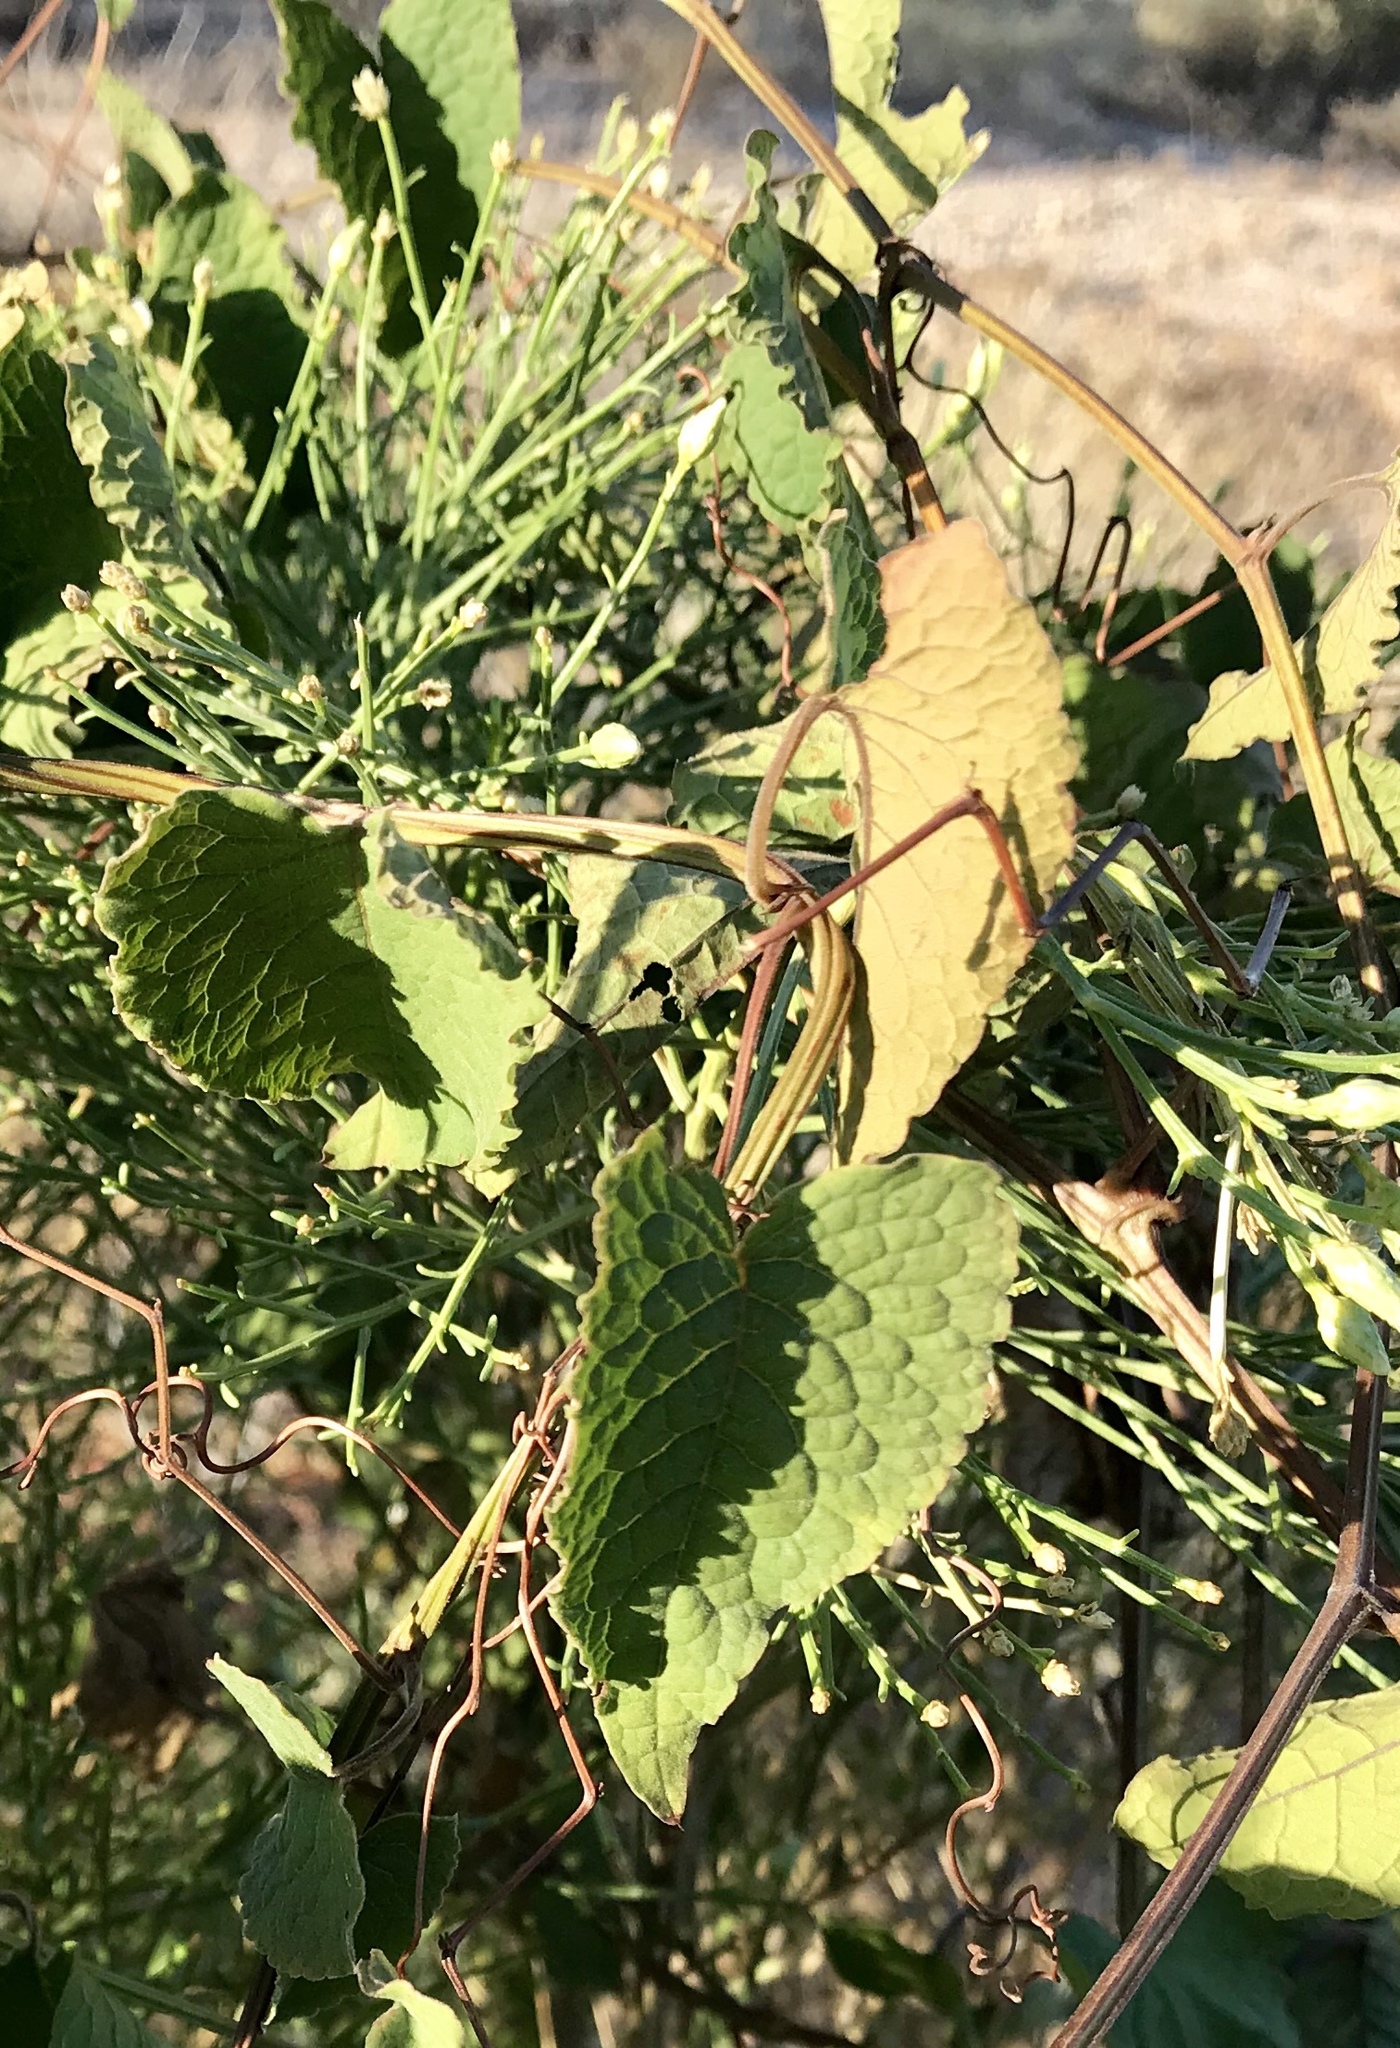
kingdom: Plantae
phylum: Tracheophyta
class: Magnoliopsida
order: Vitales
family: Vitaceae
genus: Vitis
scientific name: Vitis arizonica
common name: Canyon grape
